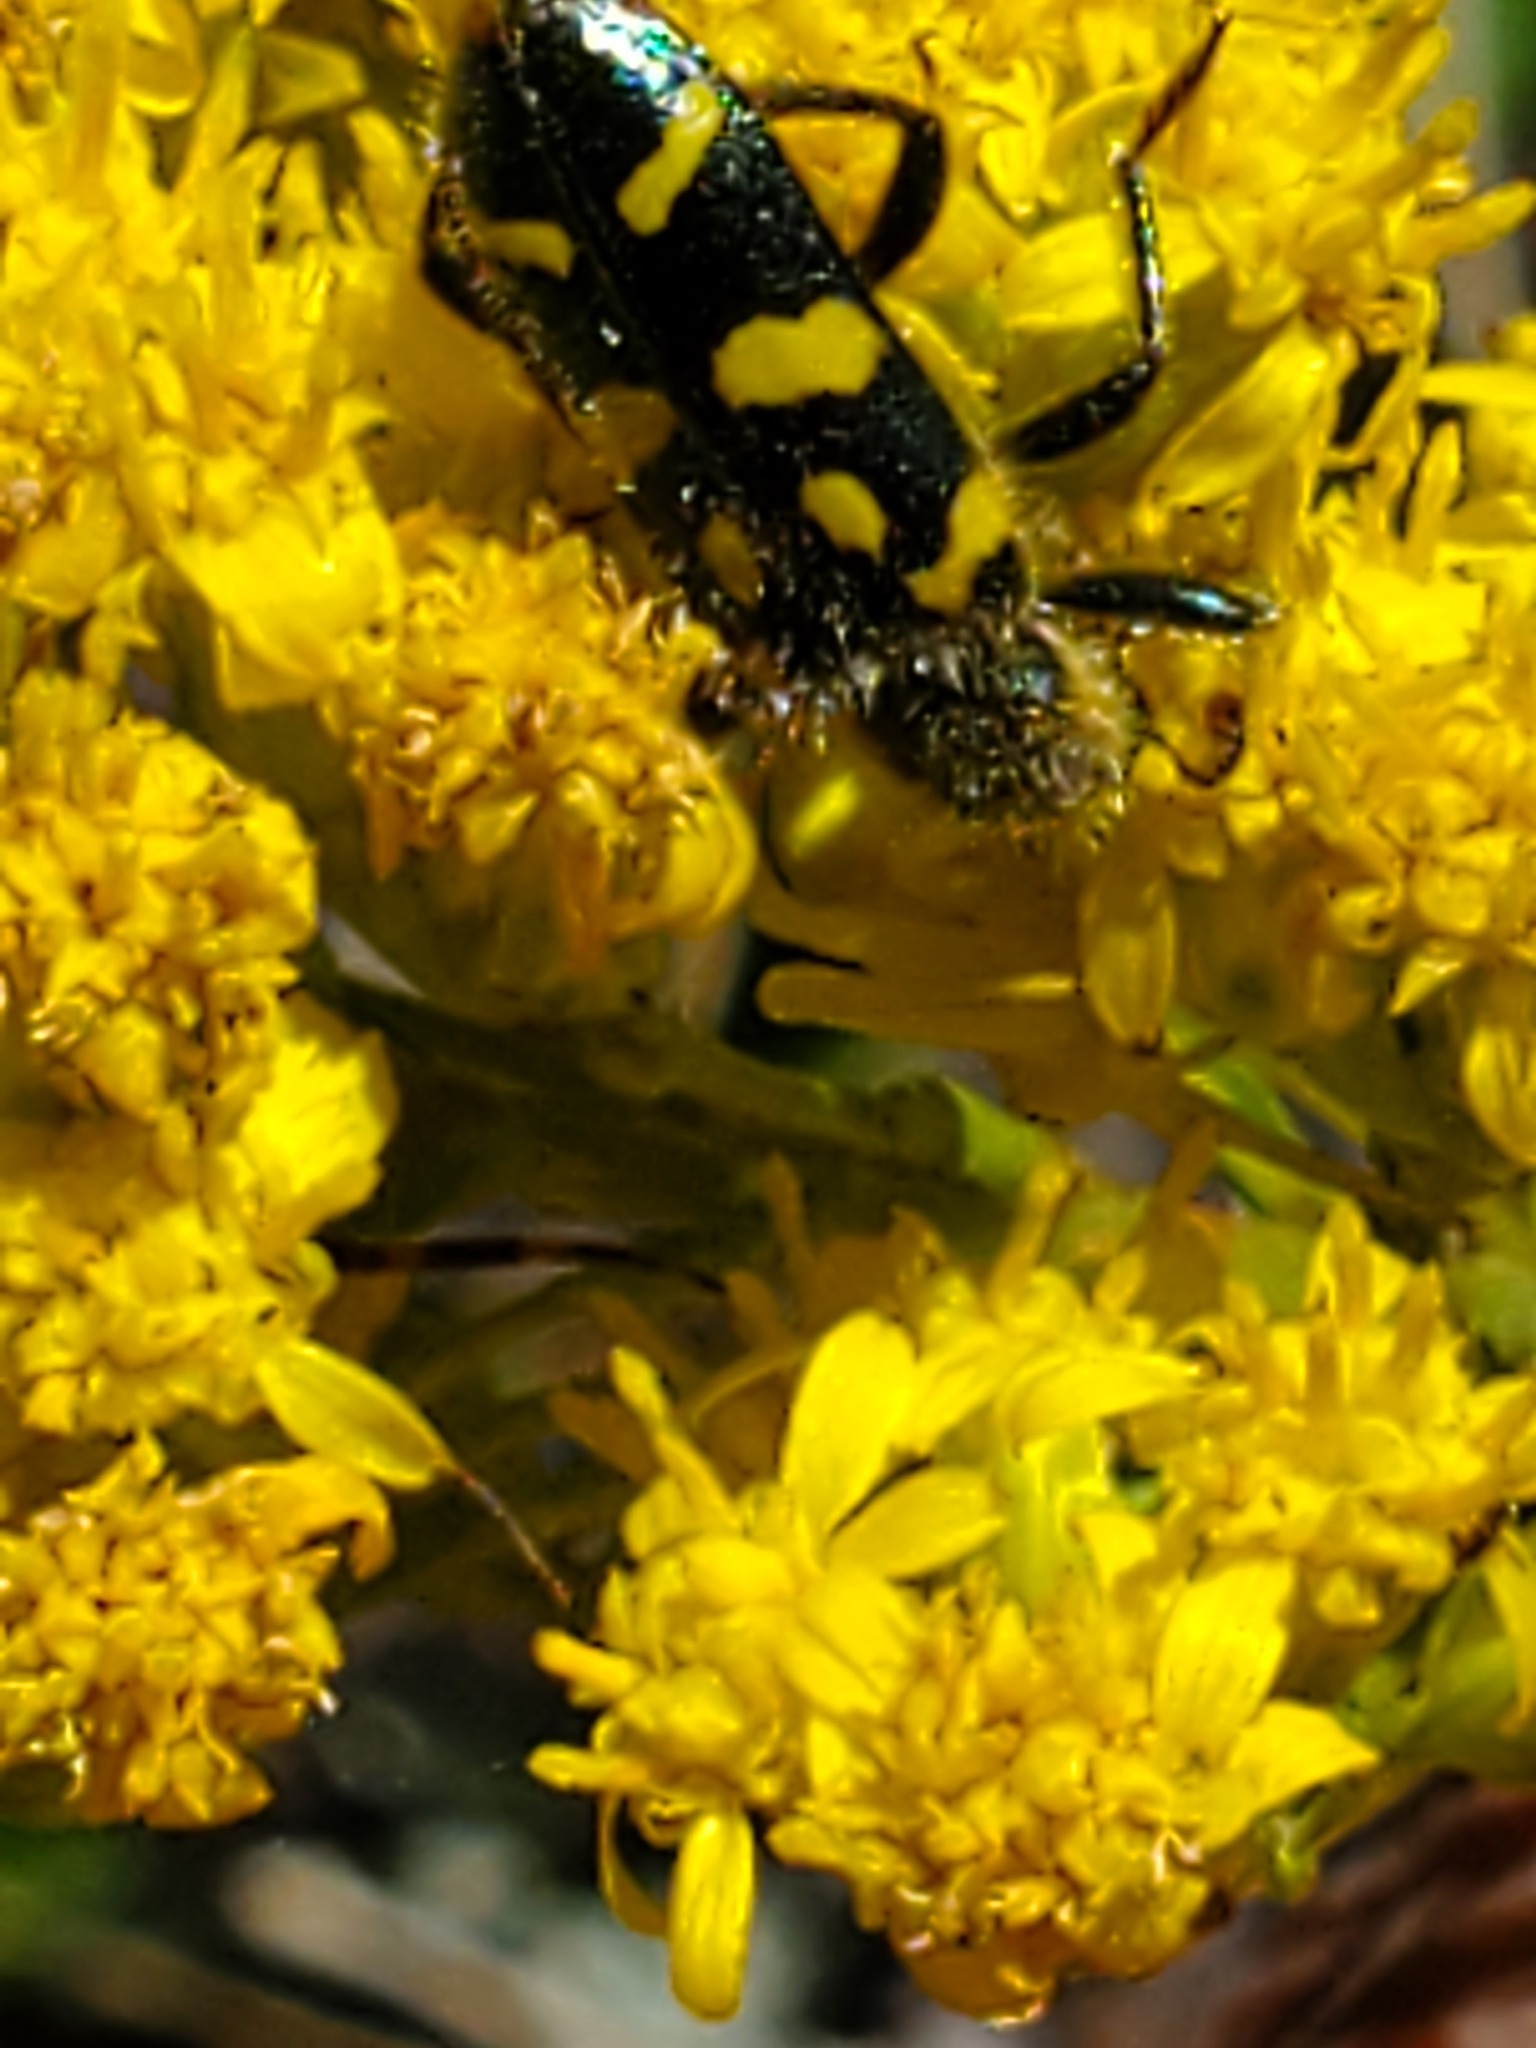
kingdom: Animalia
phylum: Arthropoda
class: Insecta
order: Coleoptera
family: Cleridae
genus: Trichodes
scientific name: Trichodes ornatus
